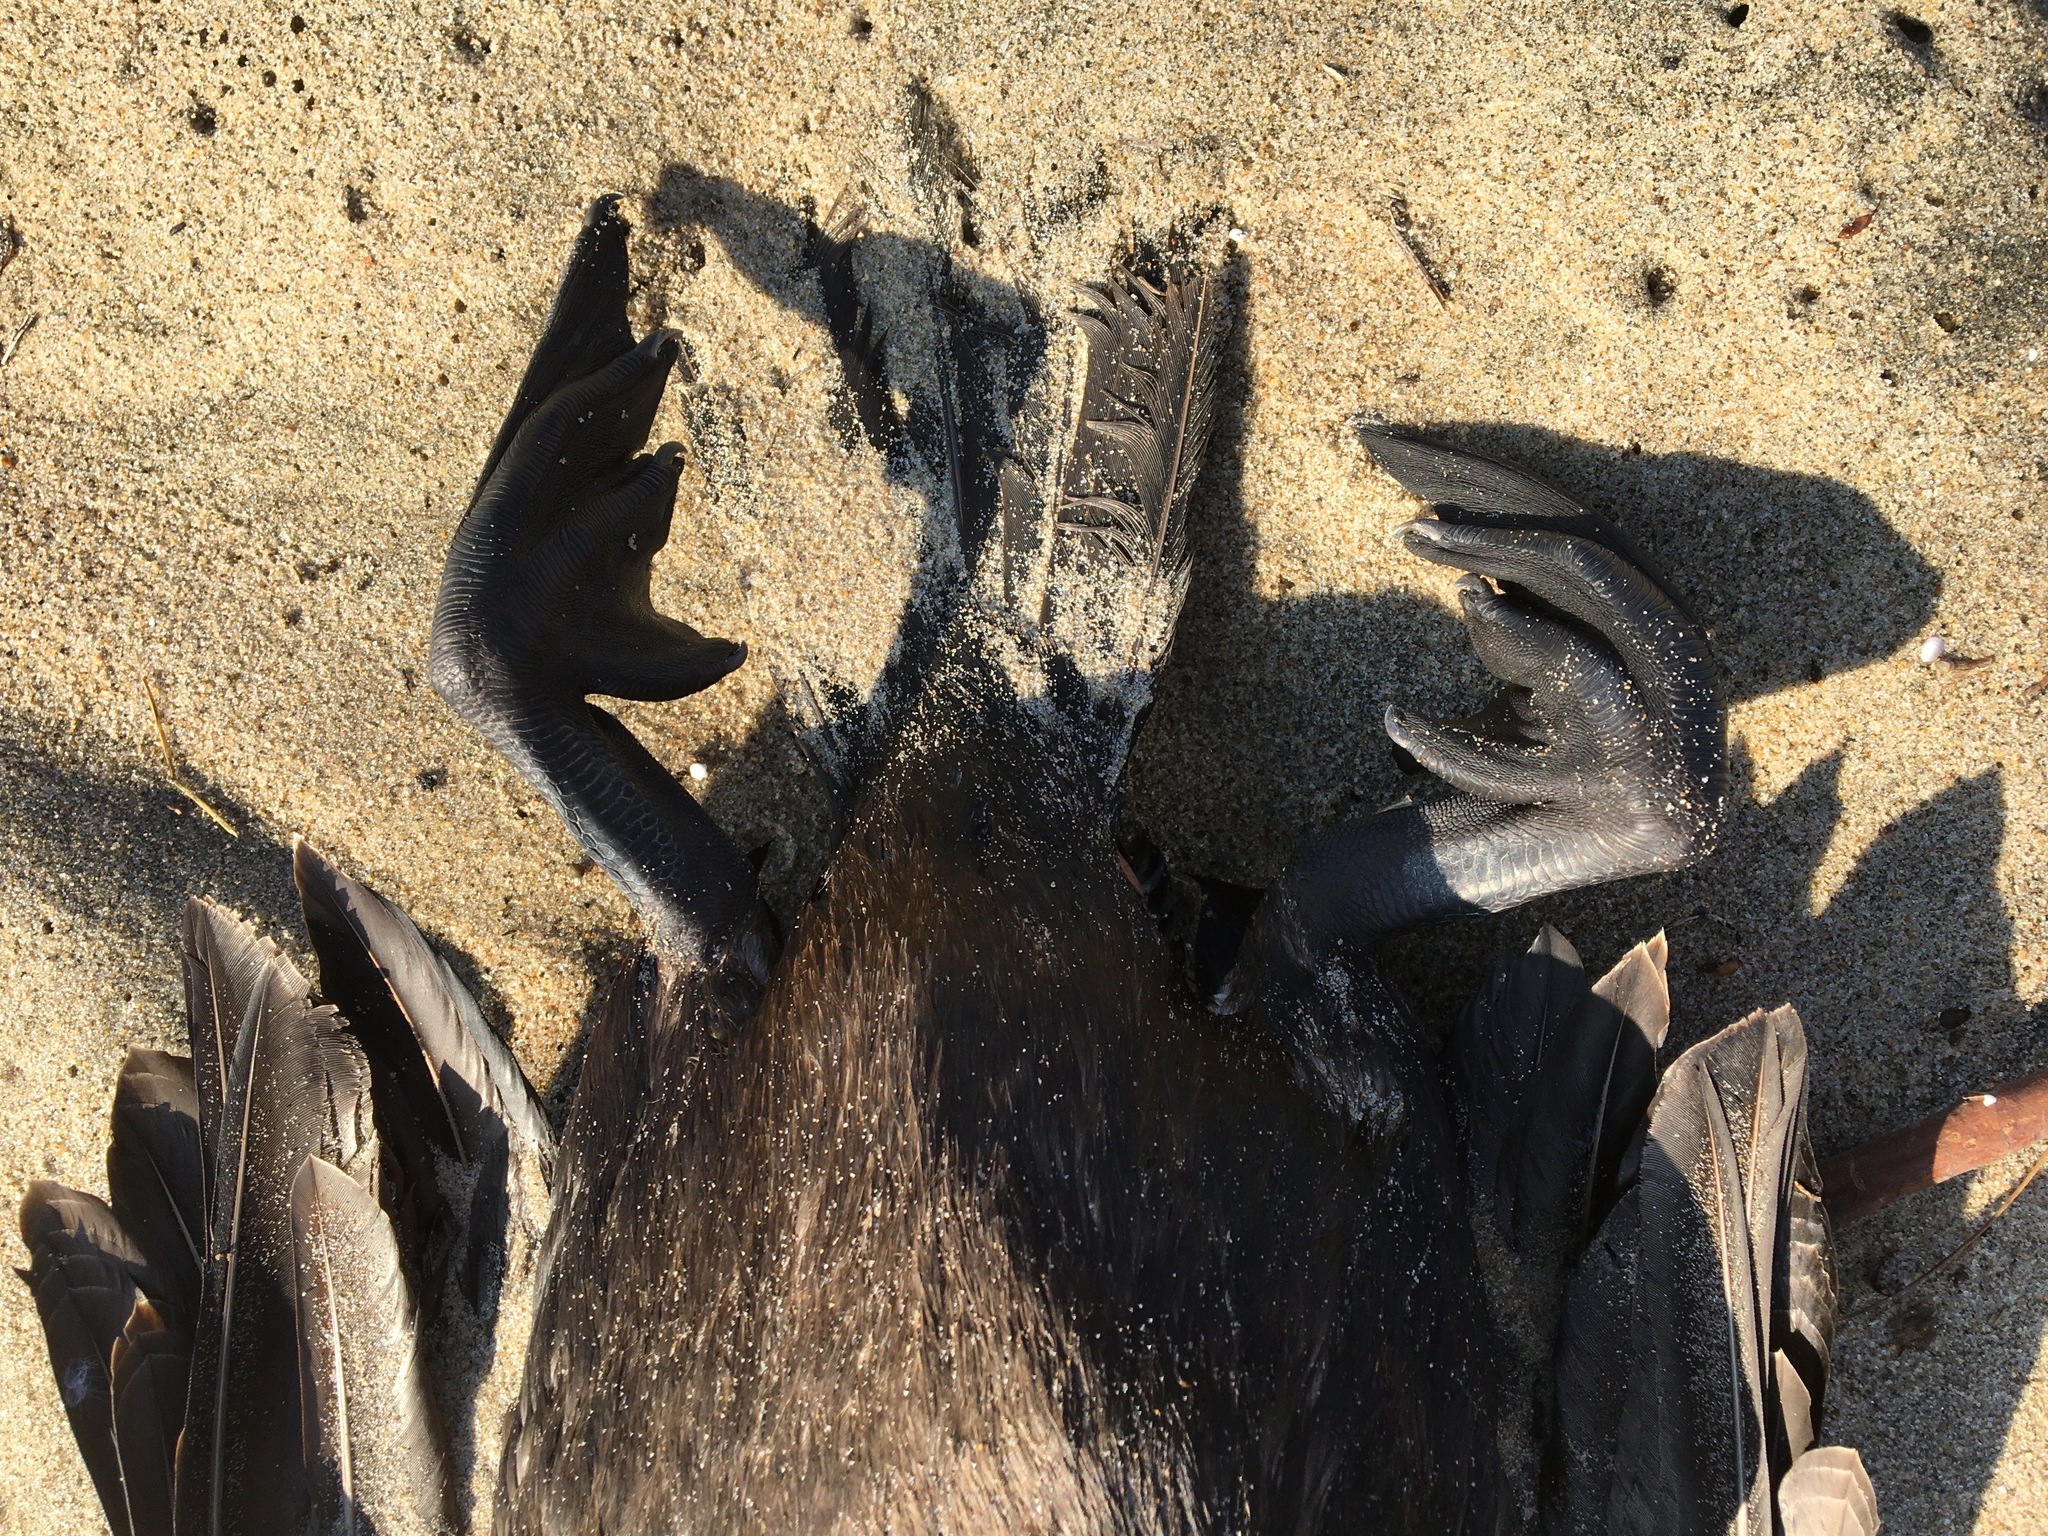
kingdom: Animalia
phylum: Chordata
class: Aves
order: Suliformes
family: Phalacrocoracidae
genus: Urile
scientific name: Urile penicillatus
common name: Brandt's cormorant
